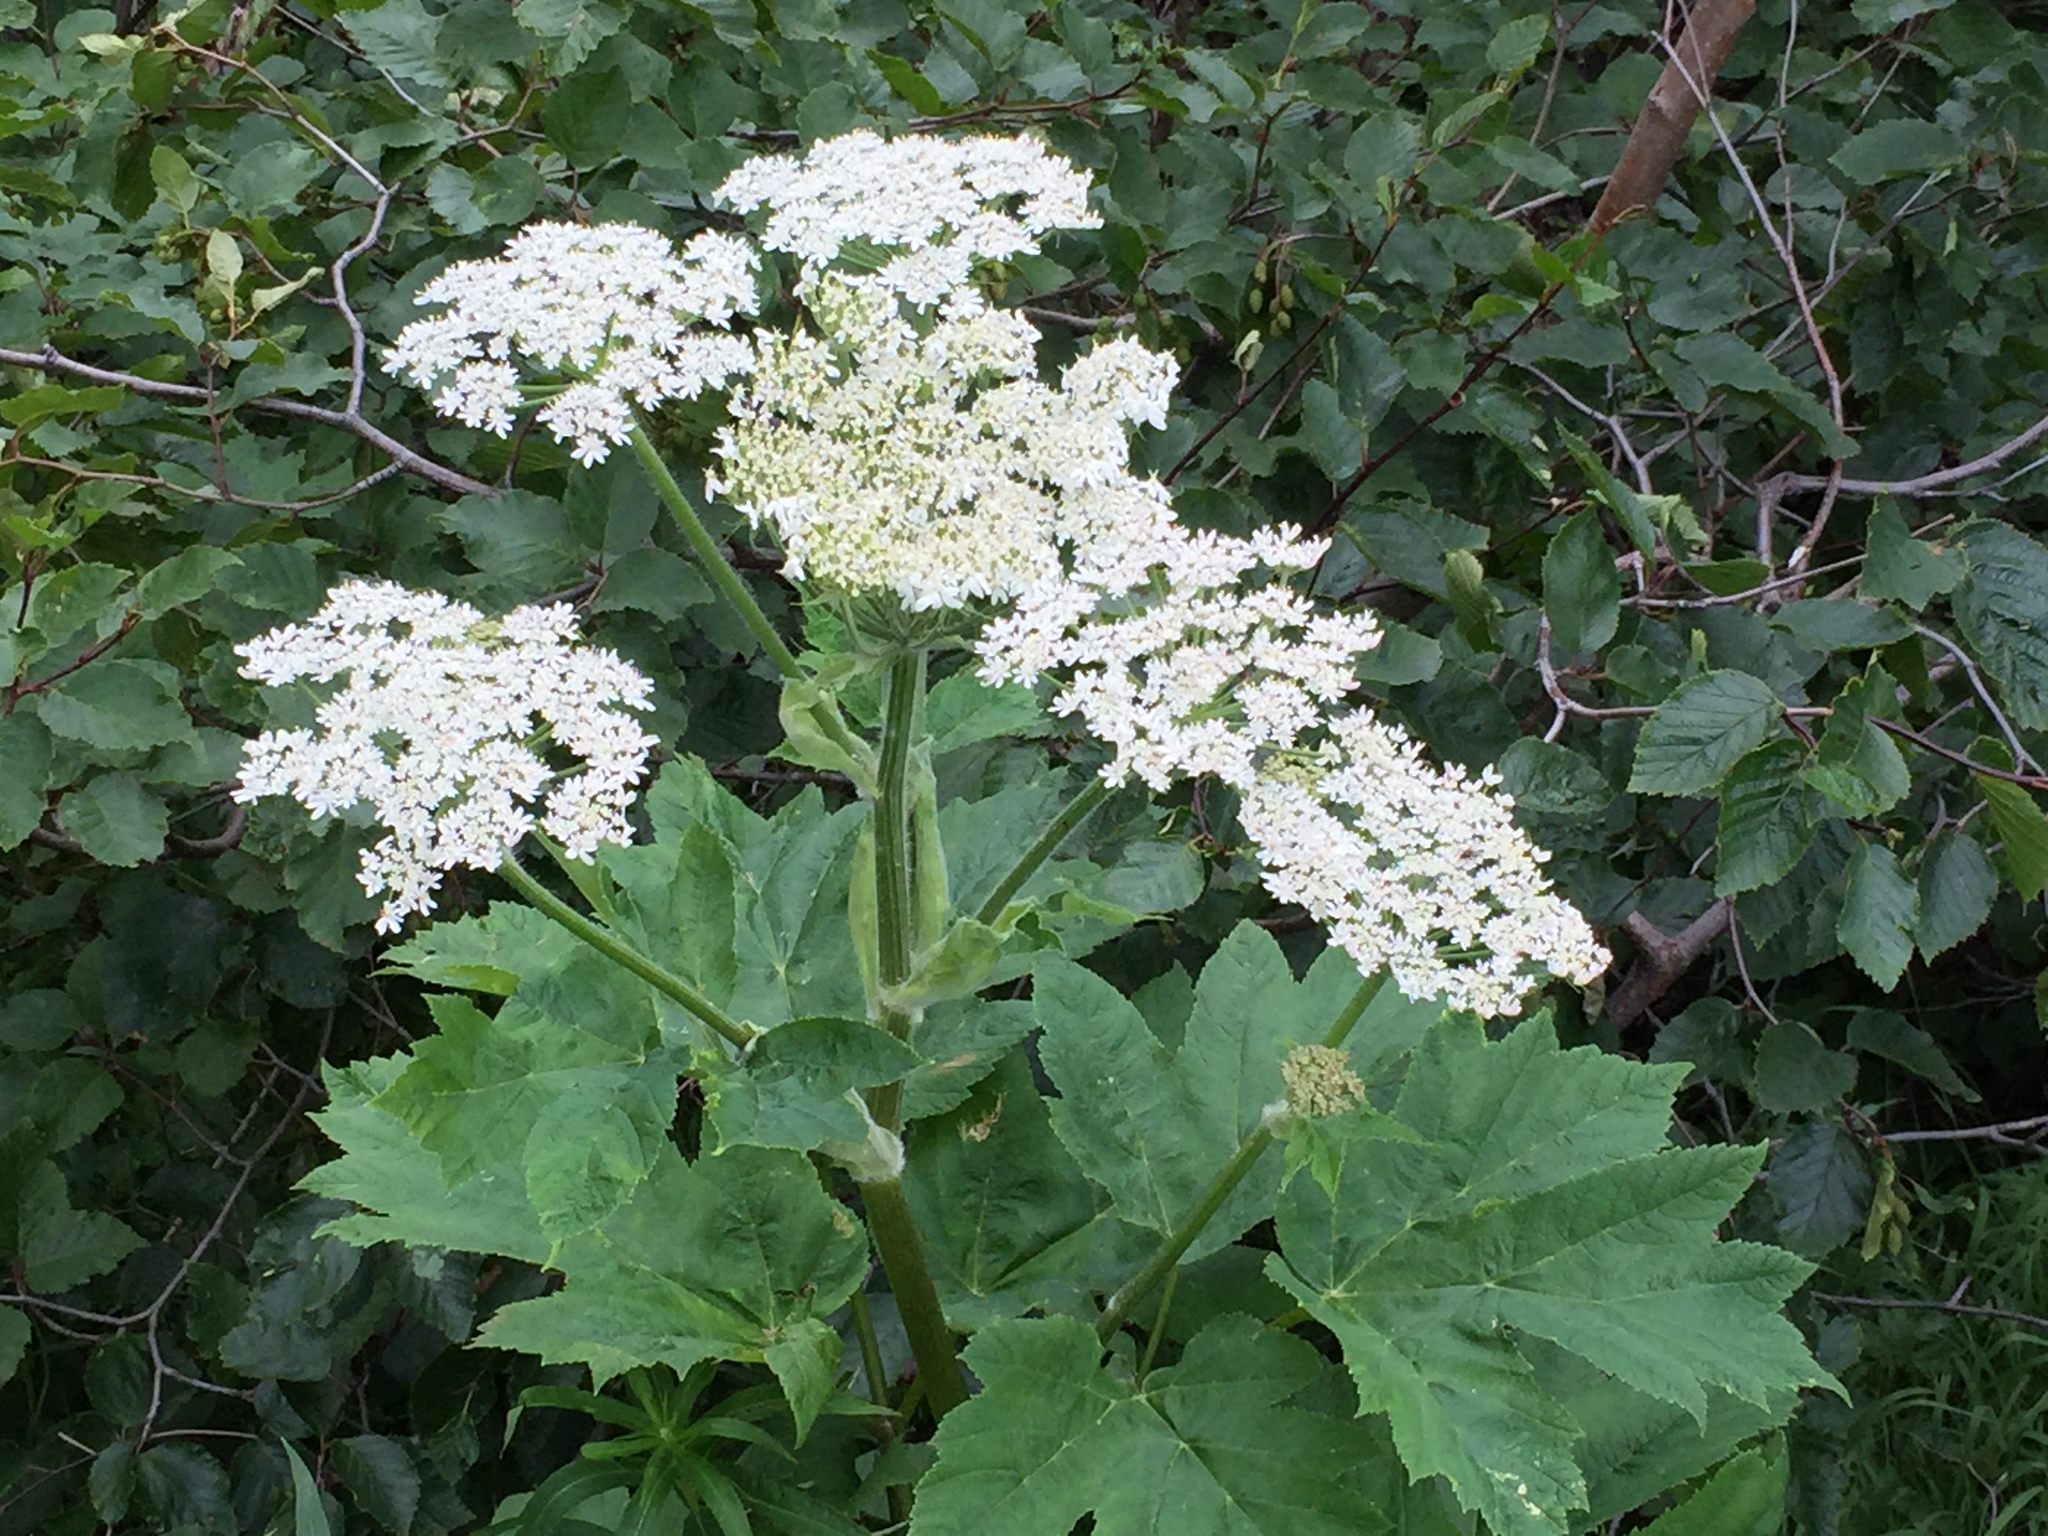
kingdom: Plantae
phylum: Tracheophyta
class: Magnoliopsida
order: Apiales
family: Apiaceae
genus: Heracleum
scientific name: Heracleum maximum
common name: American cow parsnip
